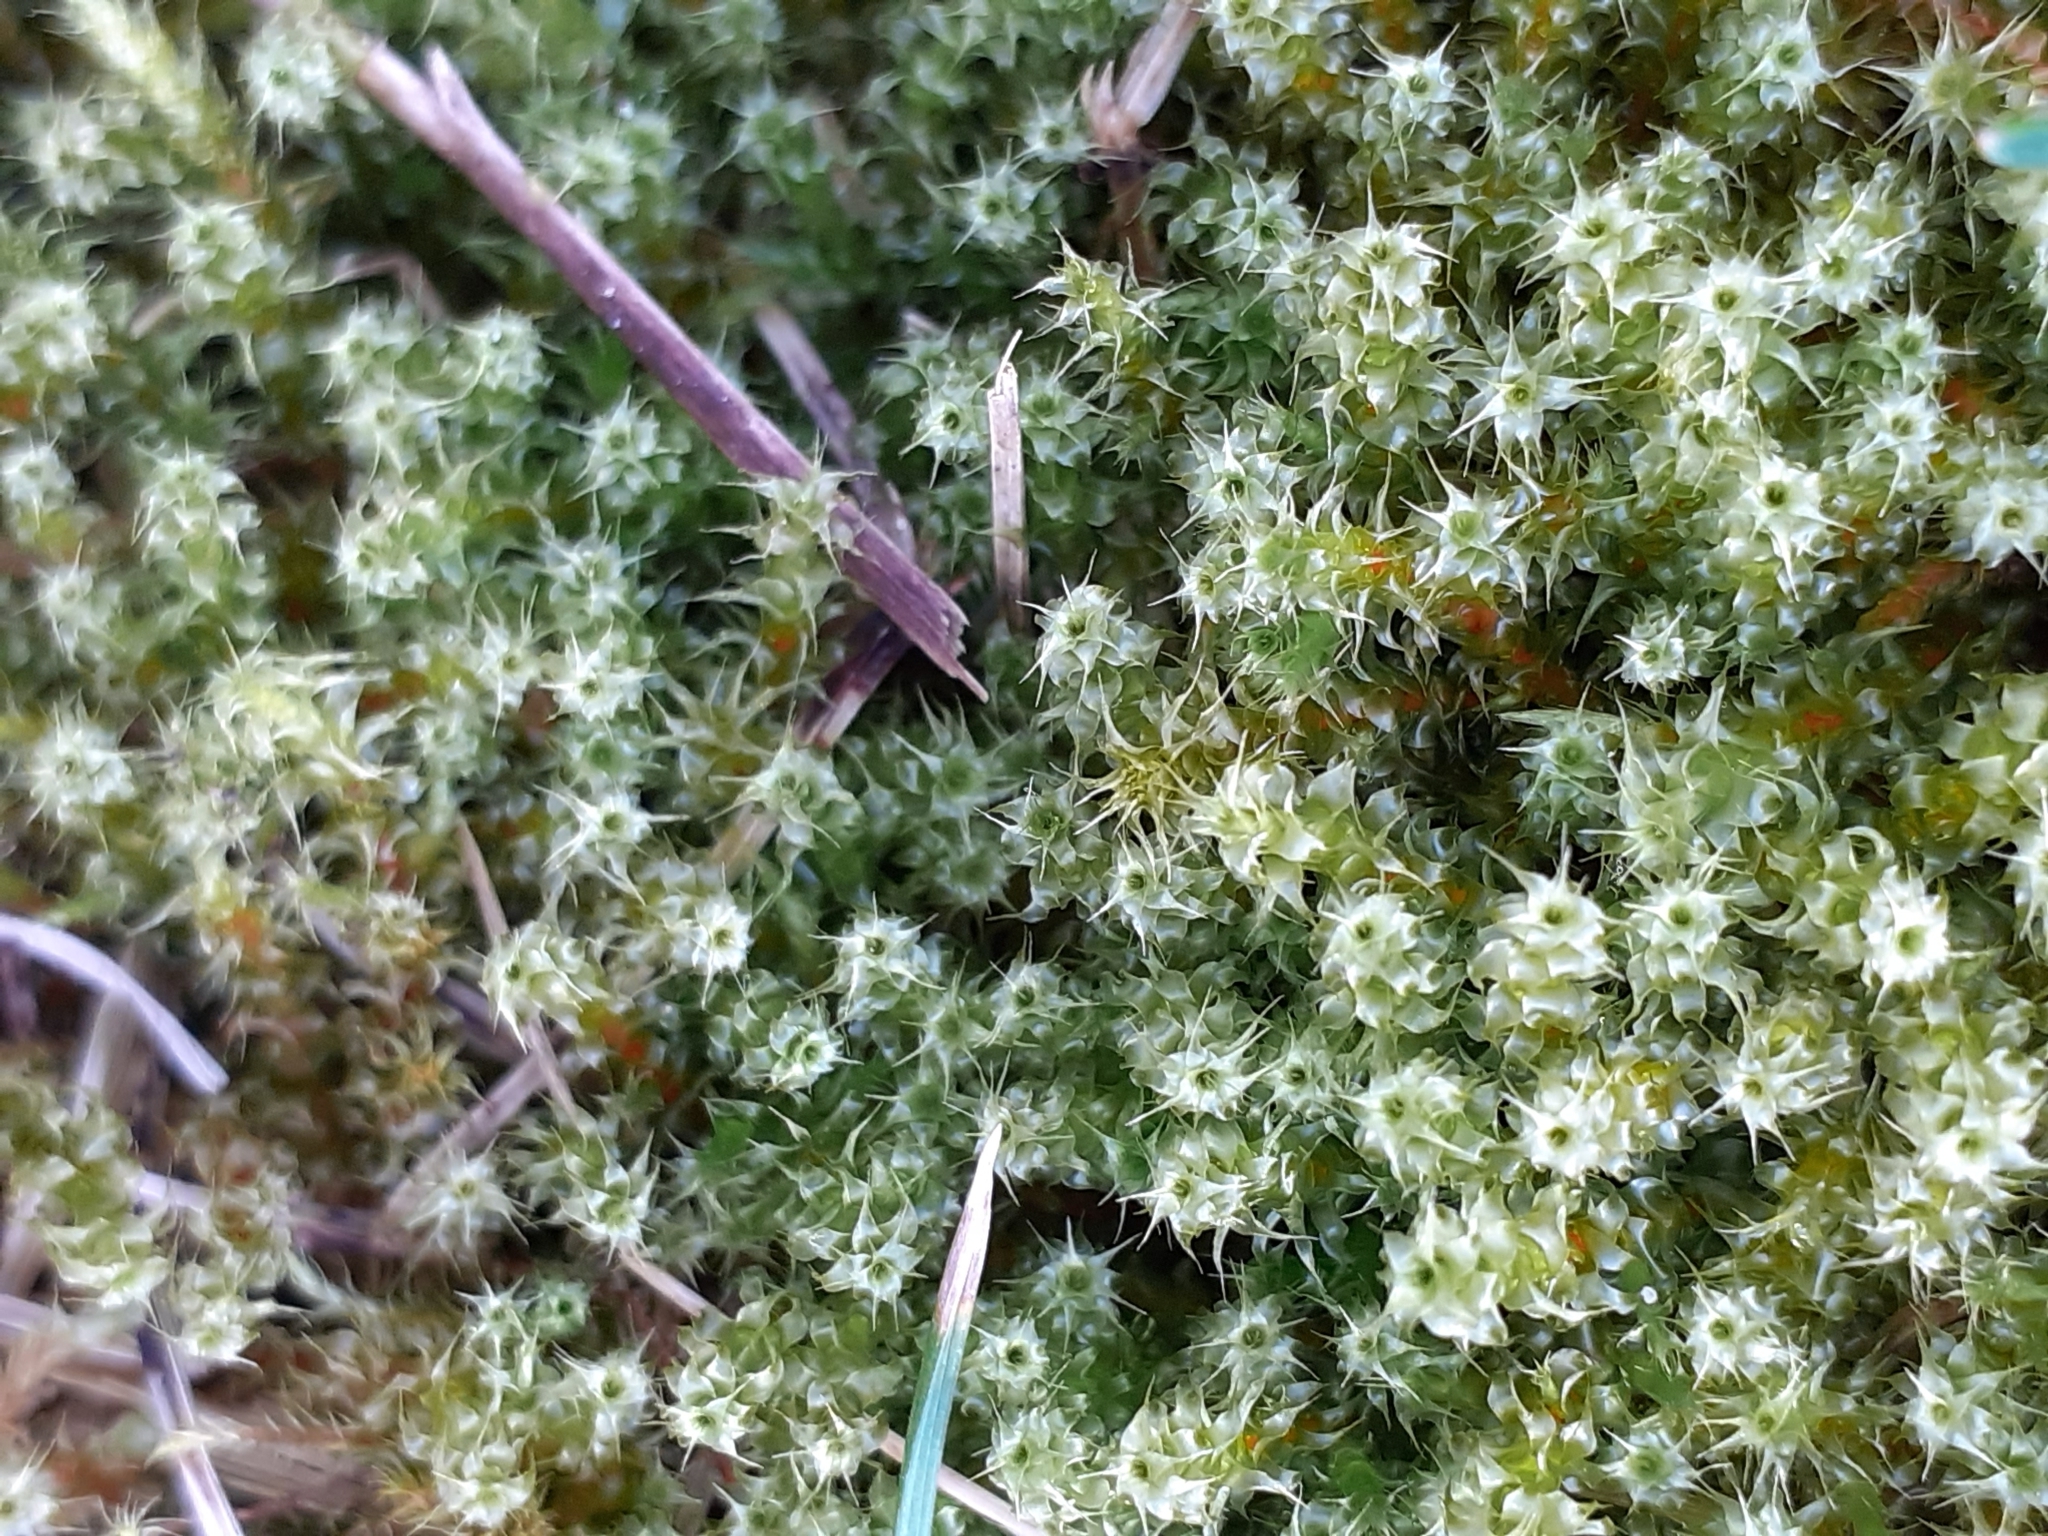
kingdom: Plantae
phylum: Bryophyta
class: Bryopsida
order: Hypnales
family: Hylocomiaceae
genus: Rhytidiadelphus
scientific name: Rhytidiadelphus squarrosus
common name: Springy turf-moss
